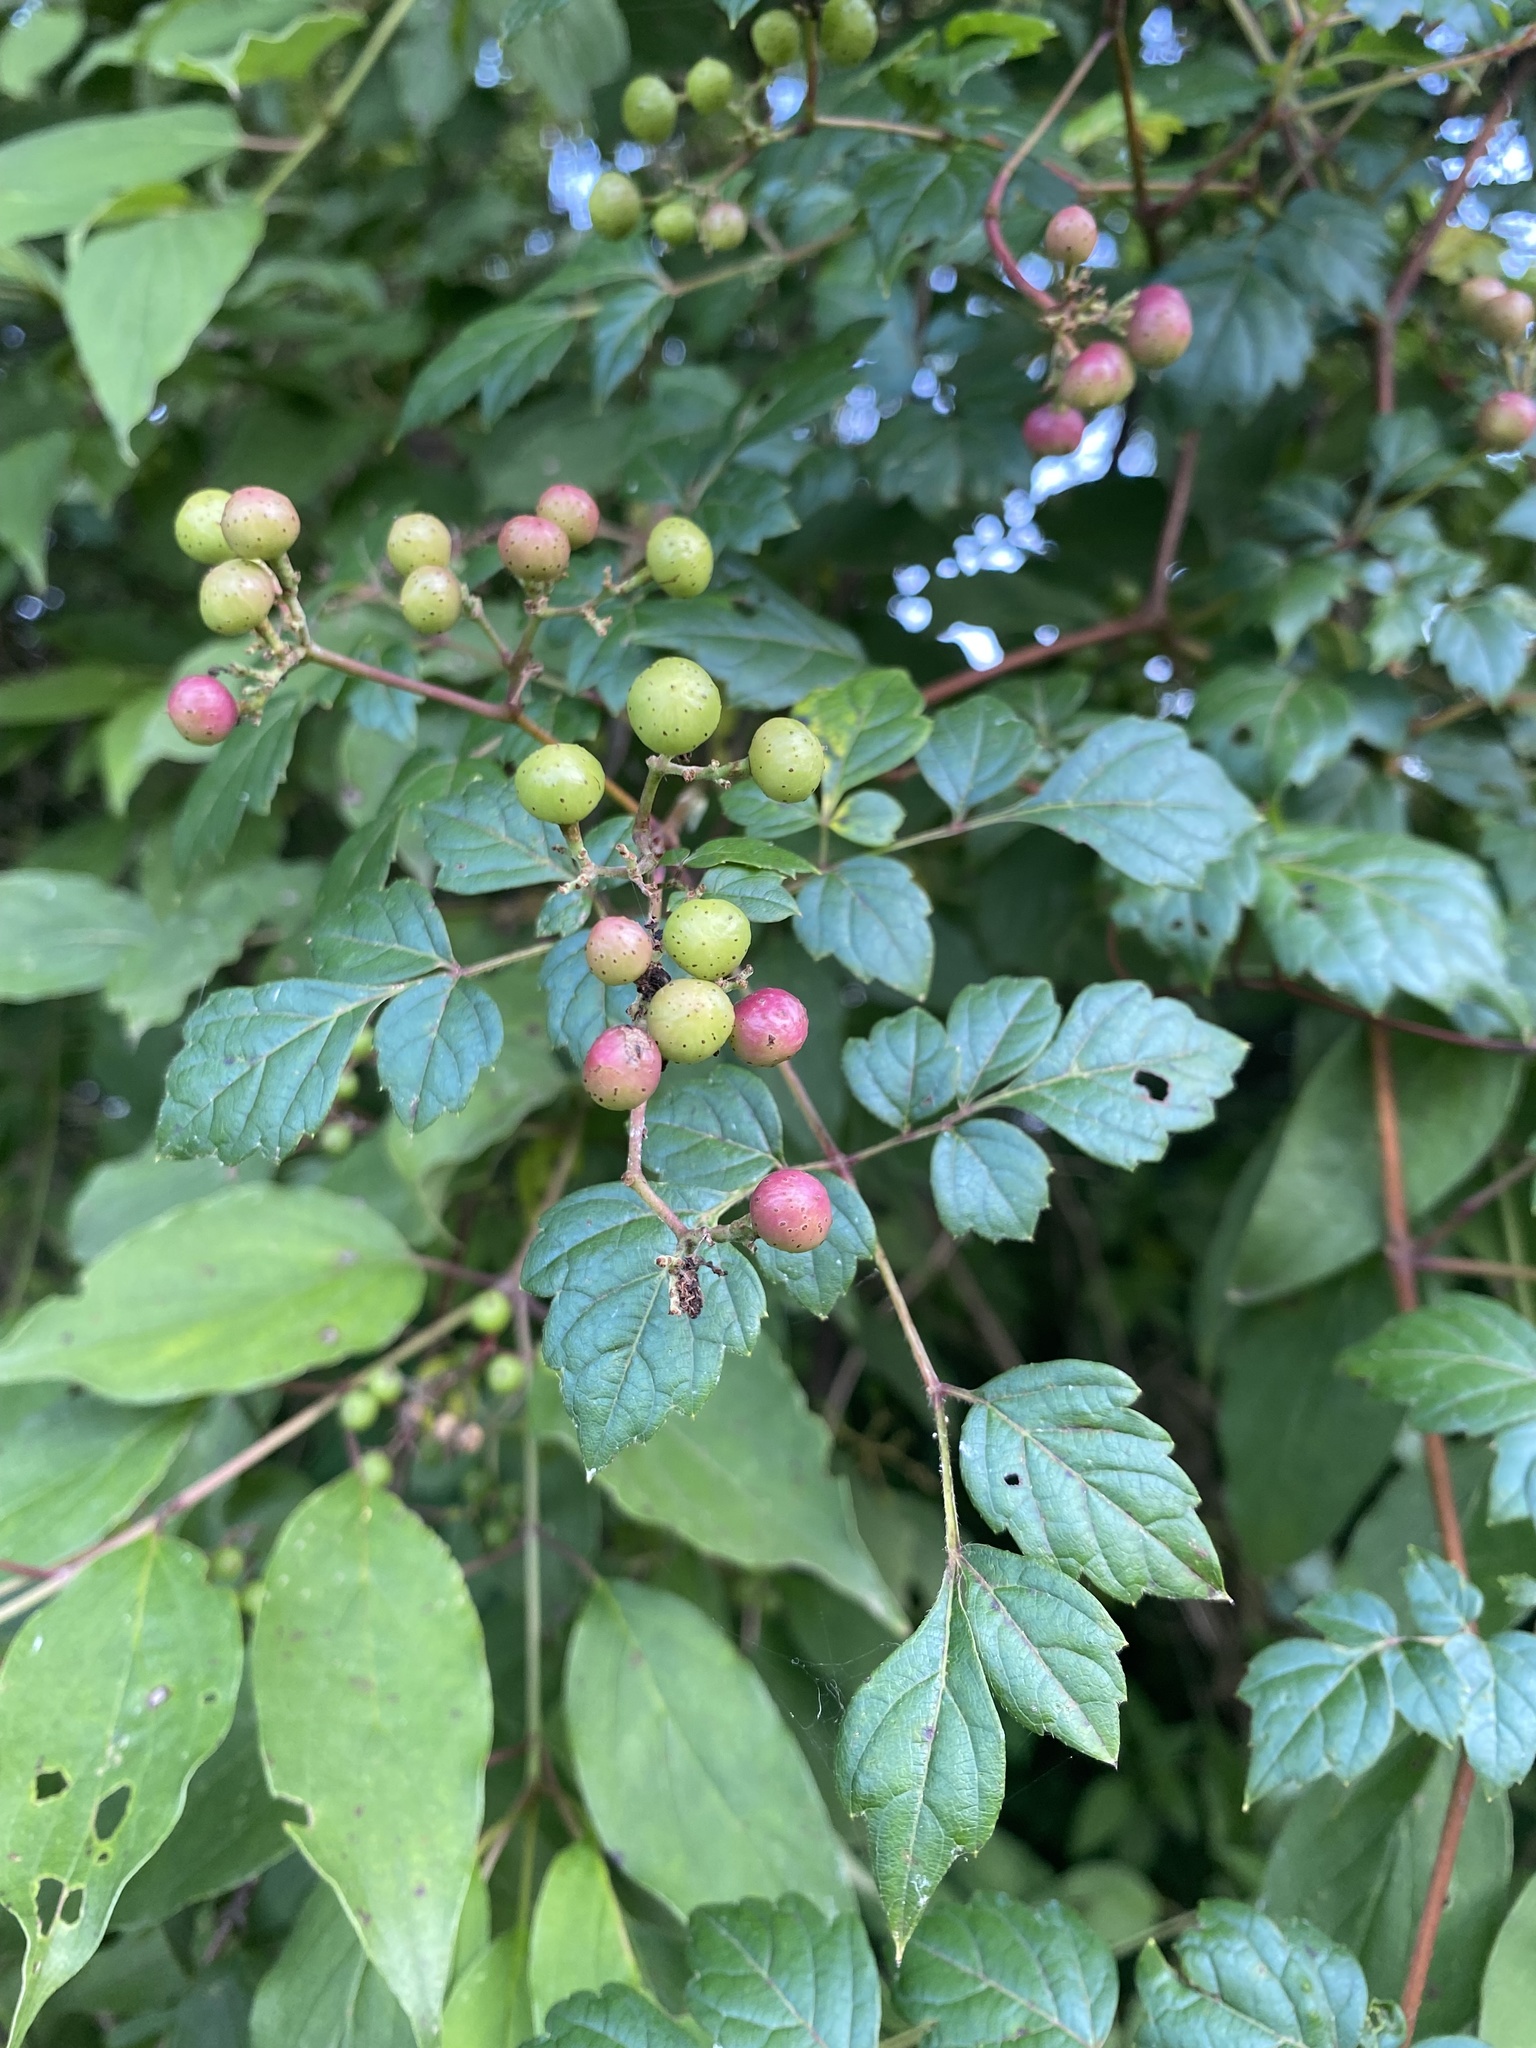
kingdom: Plantae
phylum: Tracheophyta
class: Magnoliopsida
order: Vitales
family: Vitaceae
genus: Nekemias
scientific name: Nekemias arborea
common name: Peppervine
